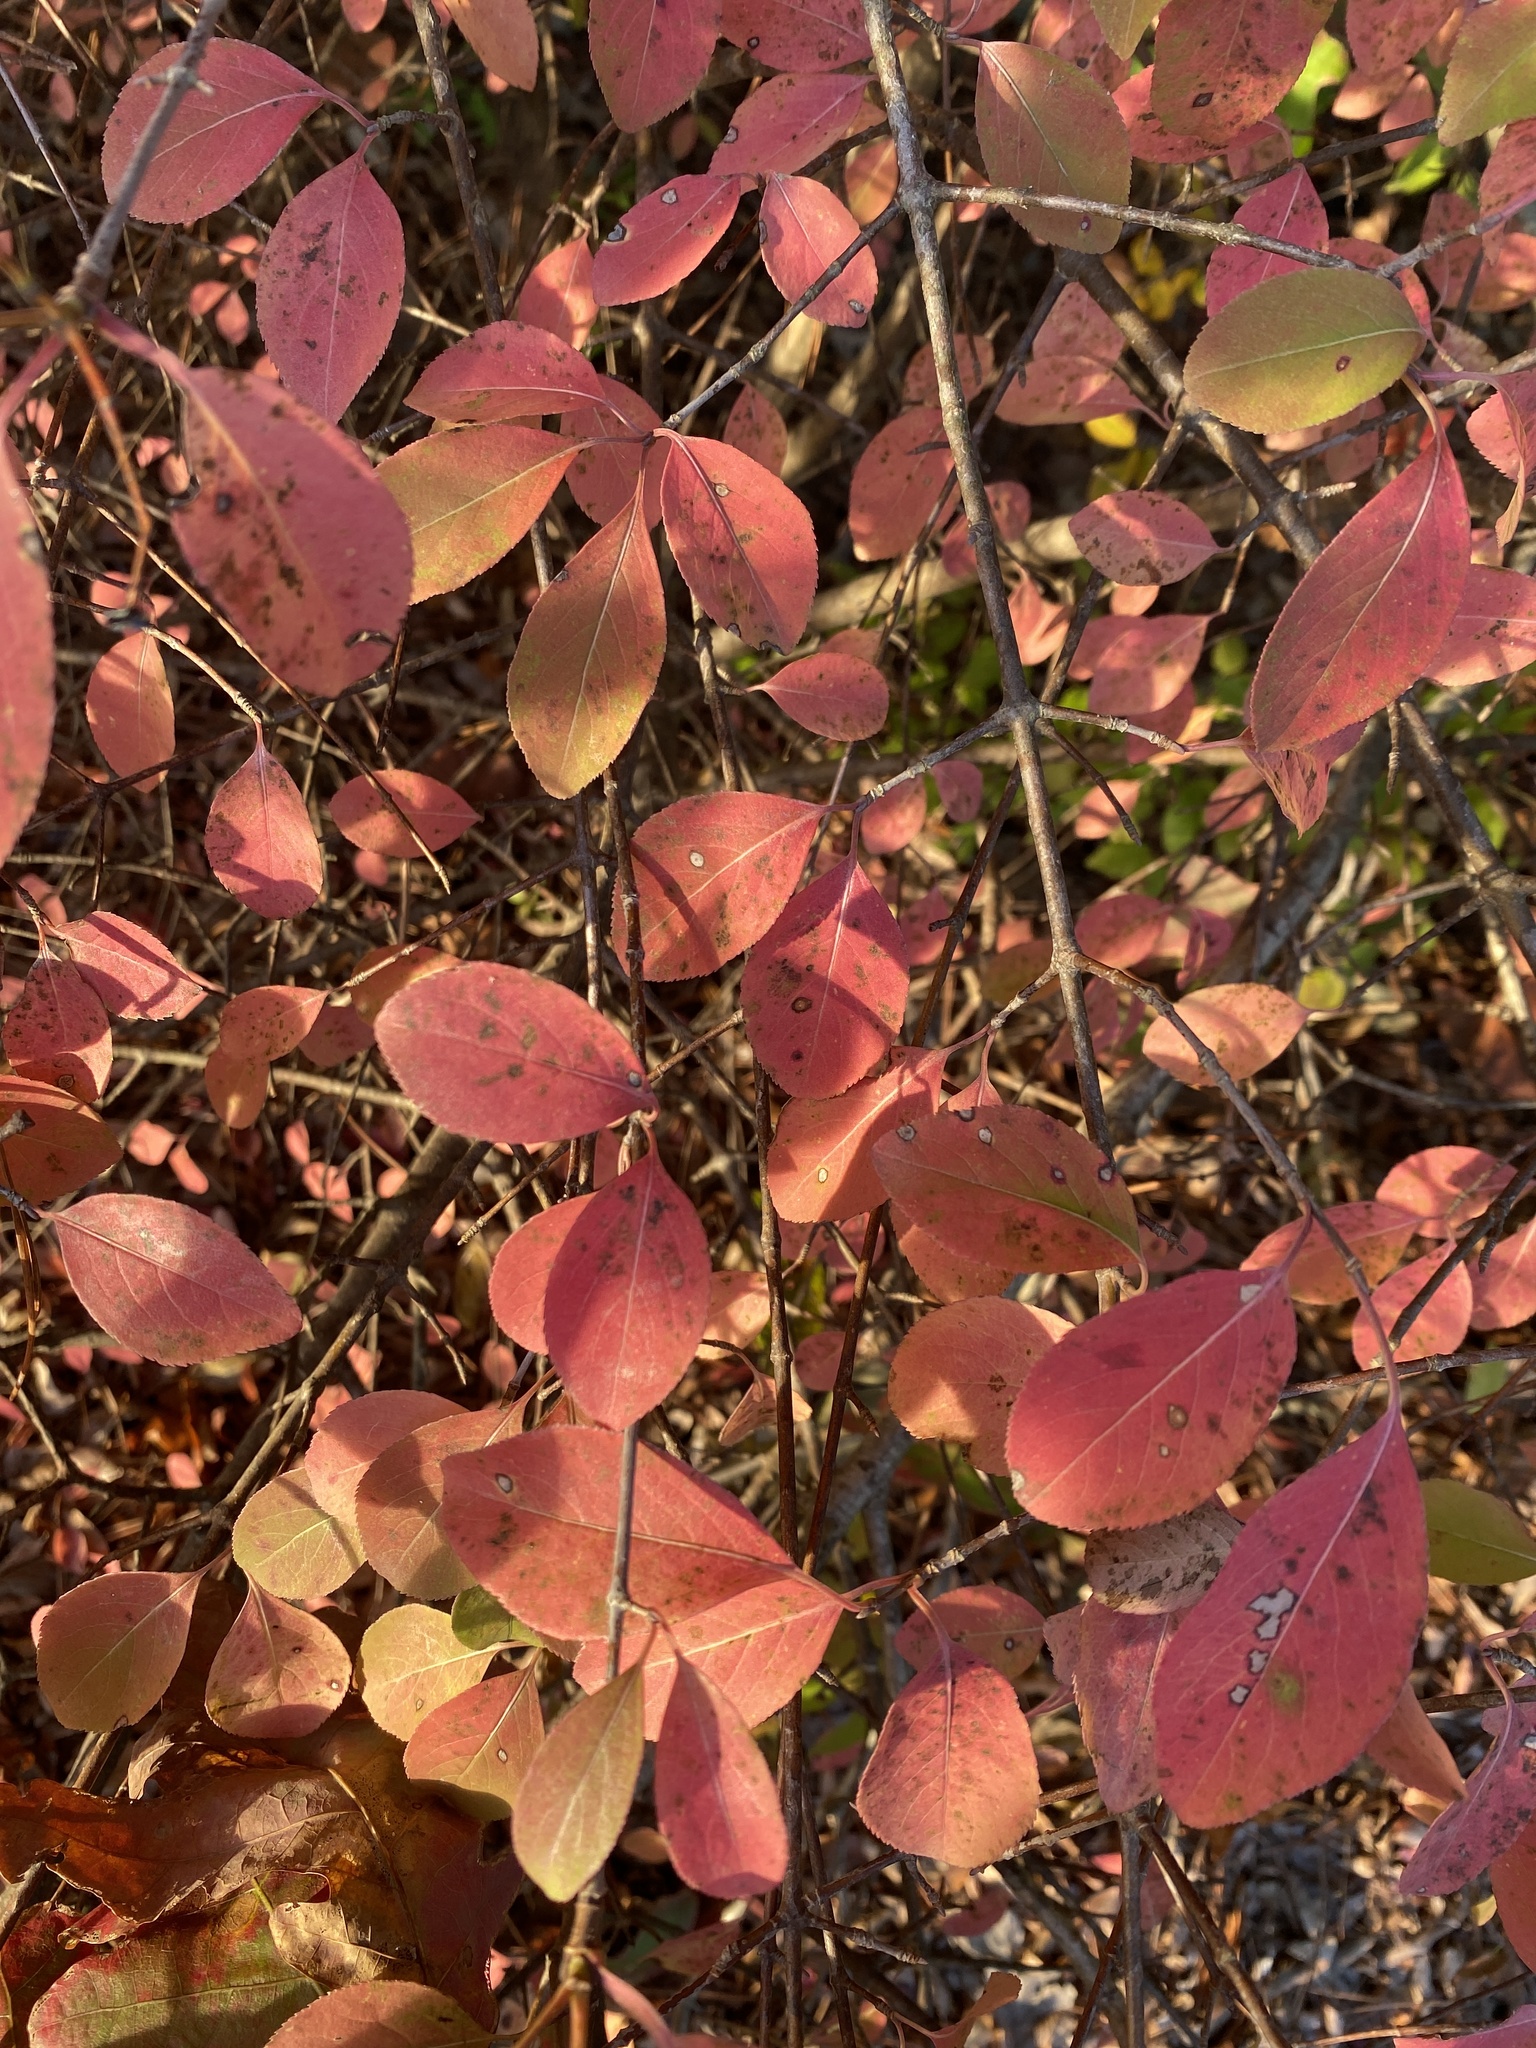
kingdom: Plantae
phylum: Tracheophyta
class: Magnoliopsida
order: Dipsacales
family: Viburnaceae
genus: Viburnum
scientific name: Viburnum prunifolium
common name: Black haw
